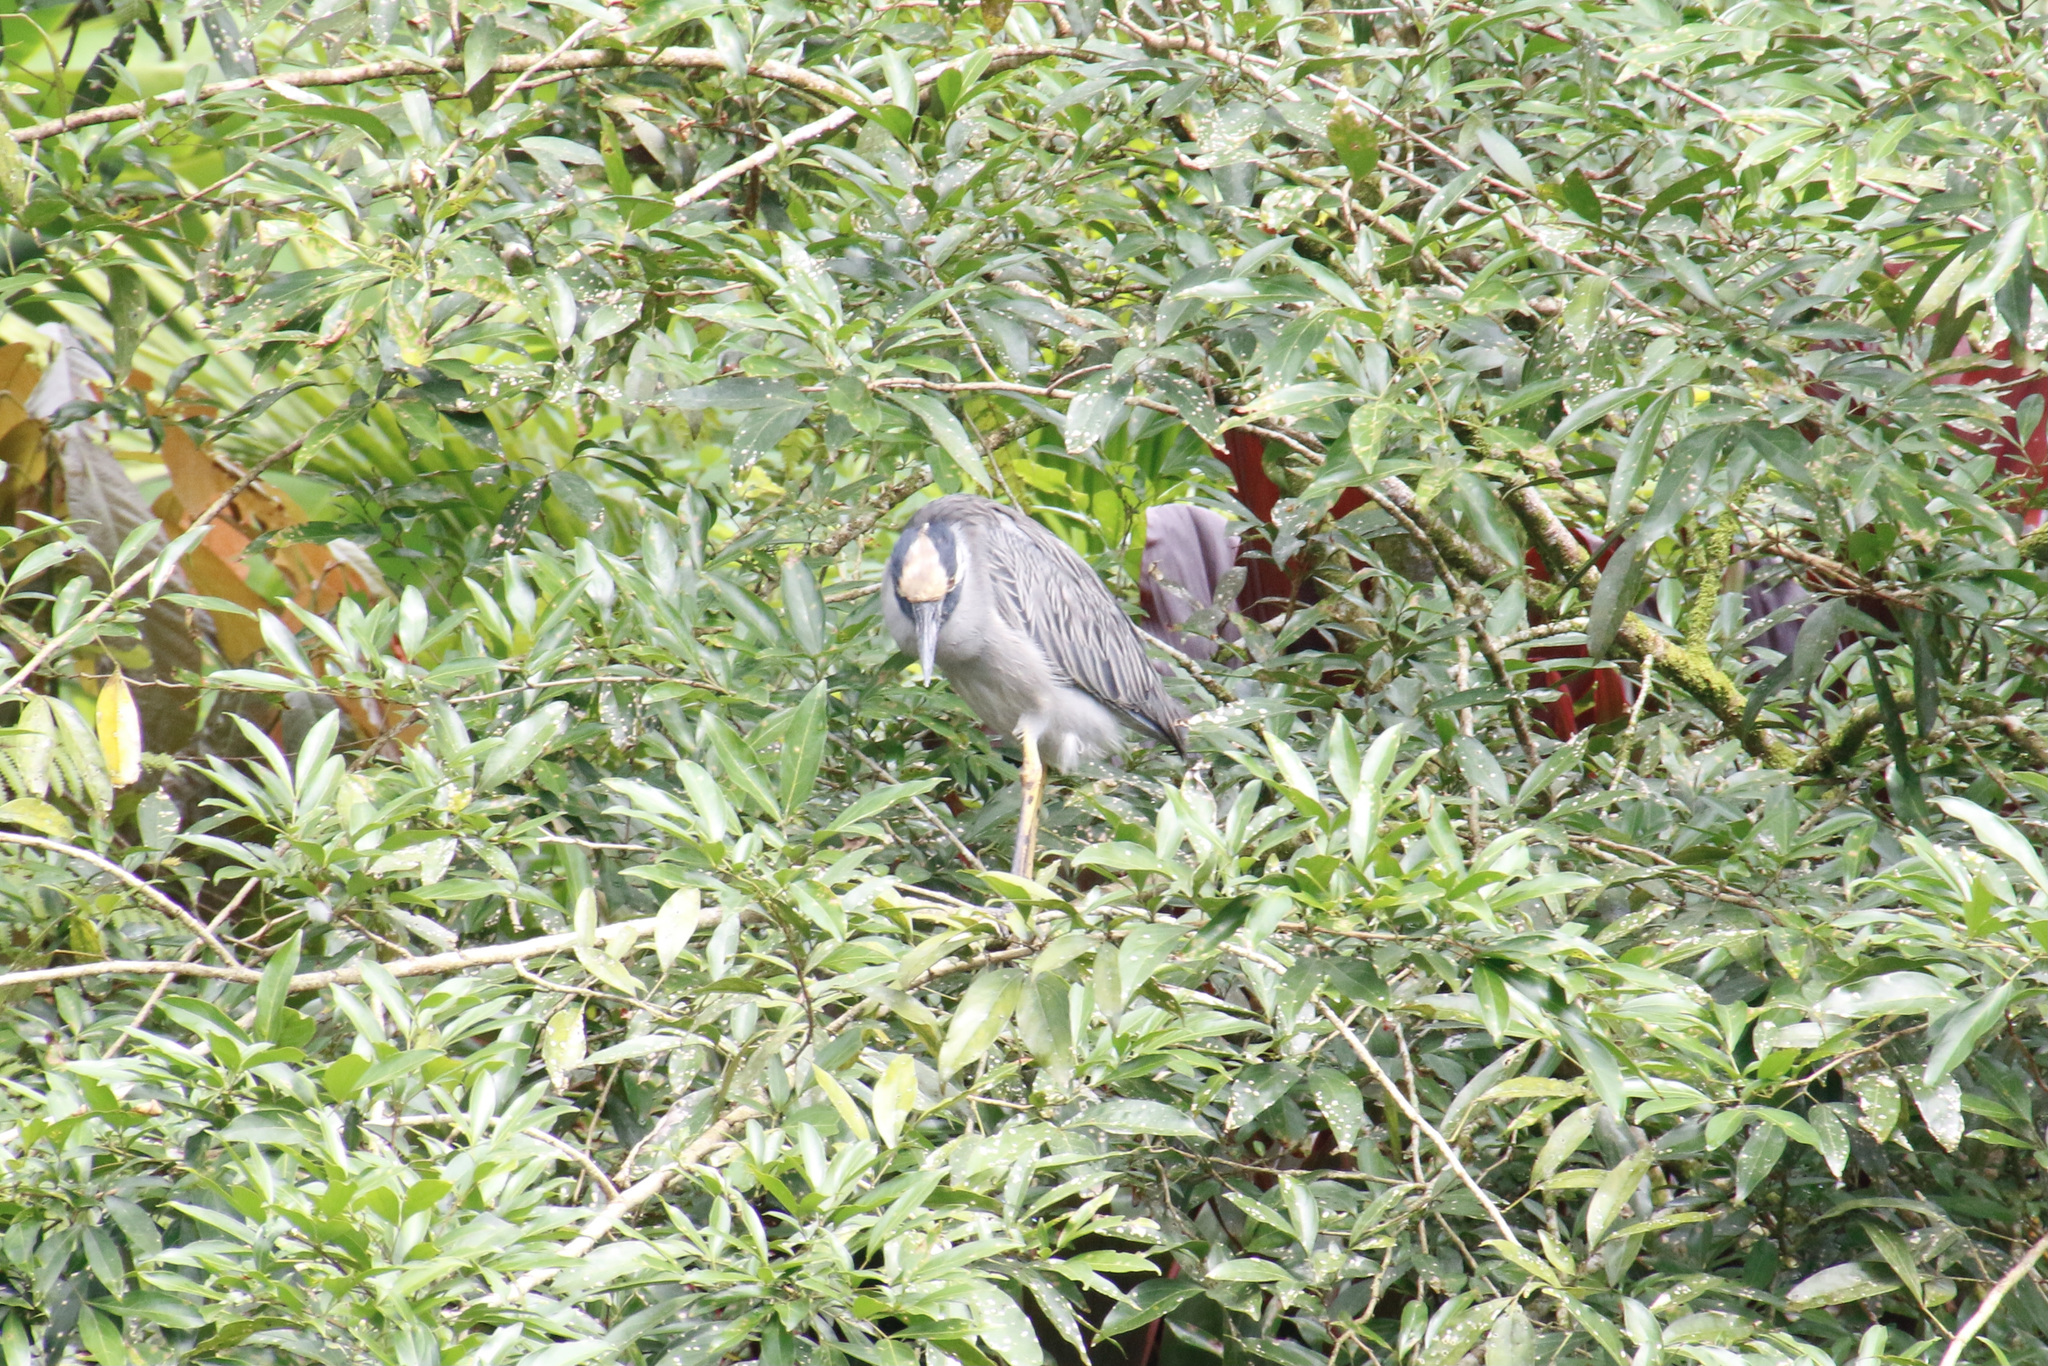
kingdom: Animalia
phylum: Chordata
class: Aves
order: Pelecaniformes
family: Ardeidae
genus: Nyctanassa
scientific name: Nyctanassa violacea
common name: Yellow-crowned night heron
